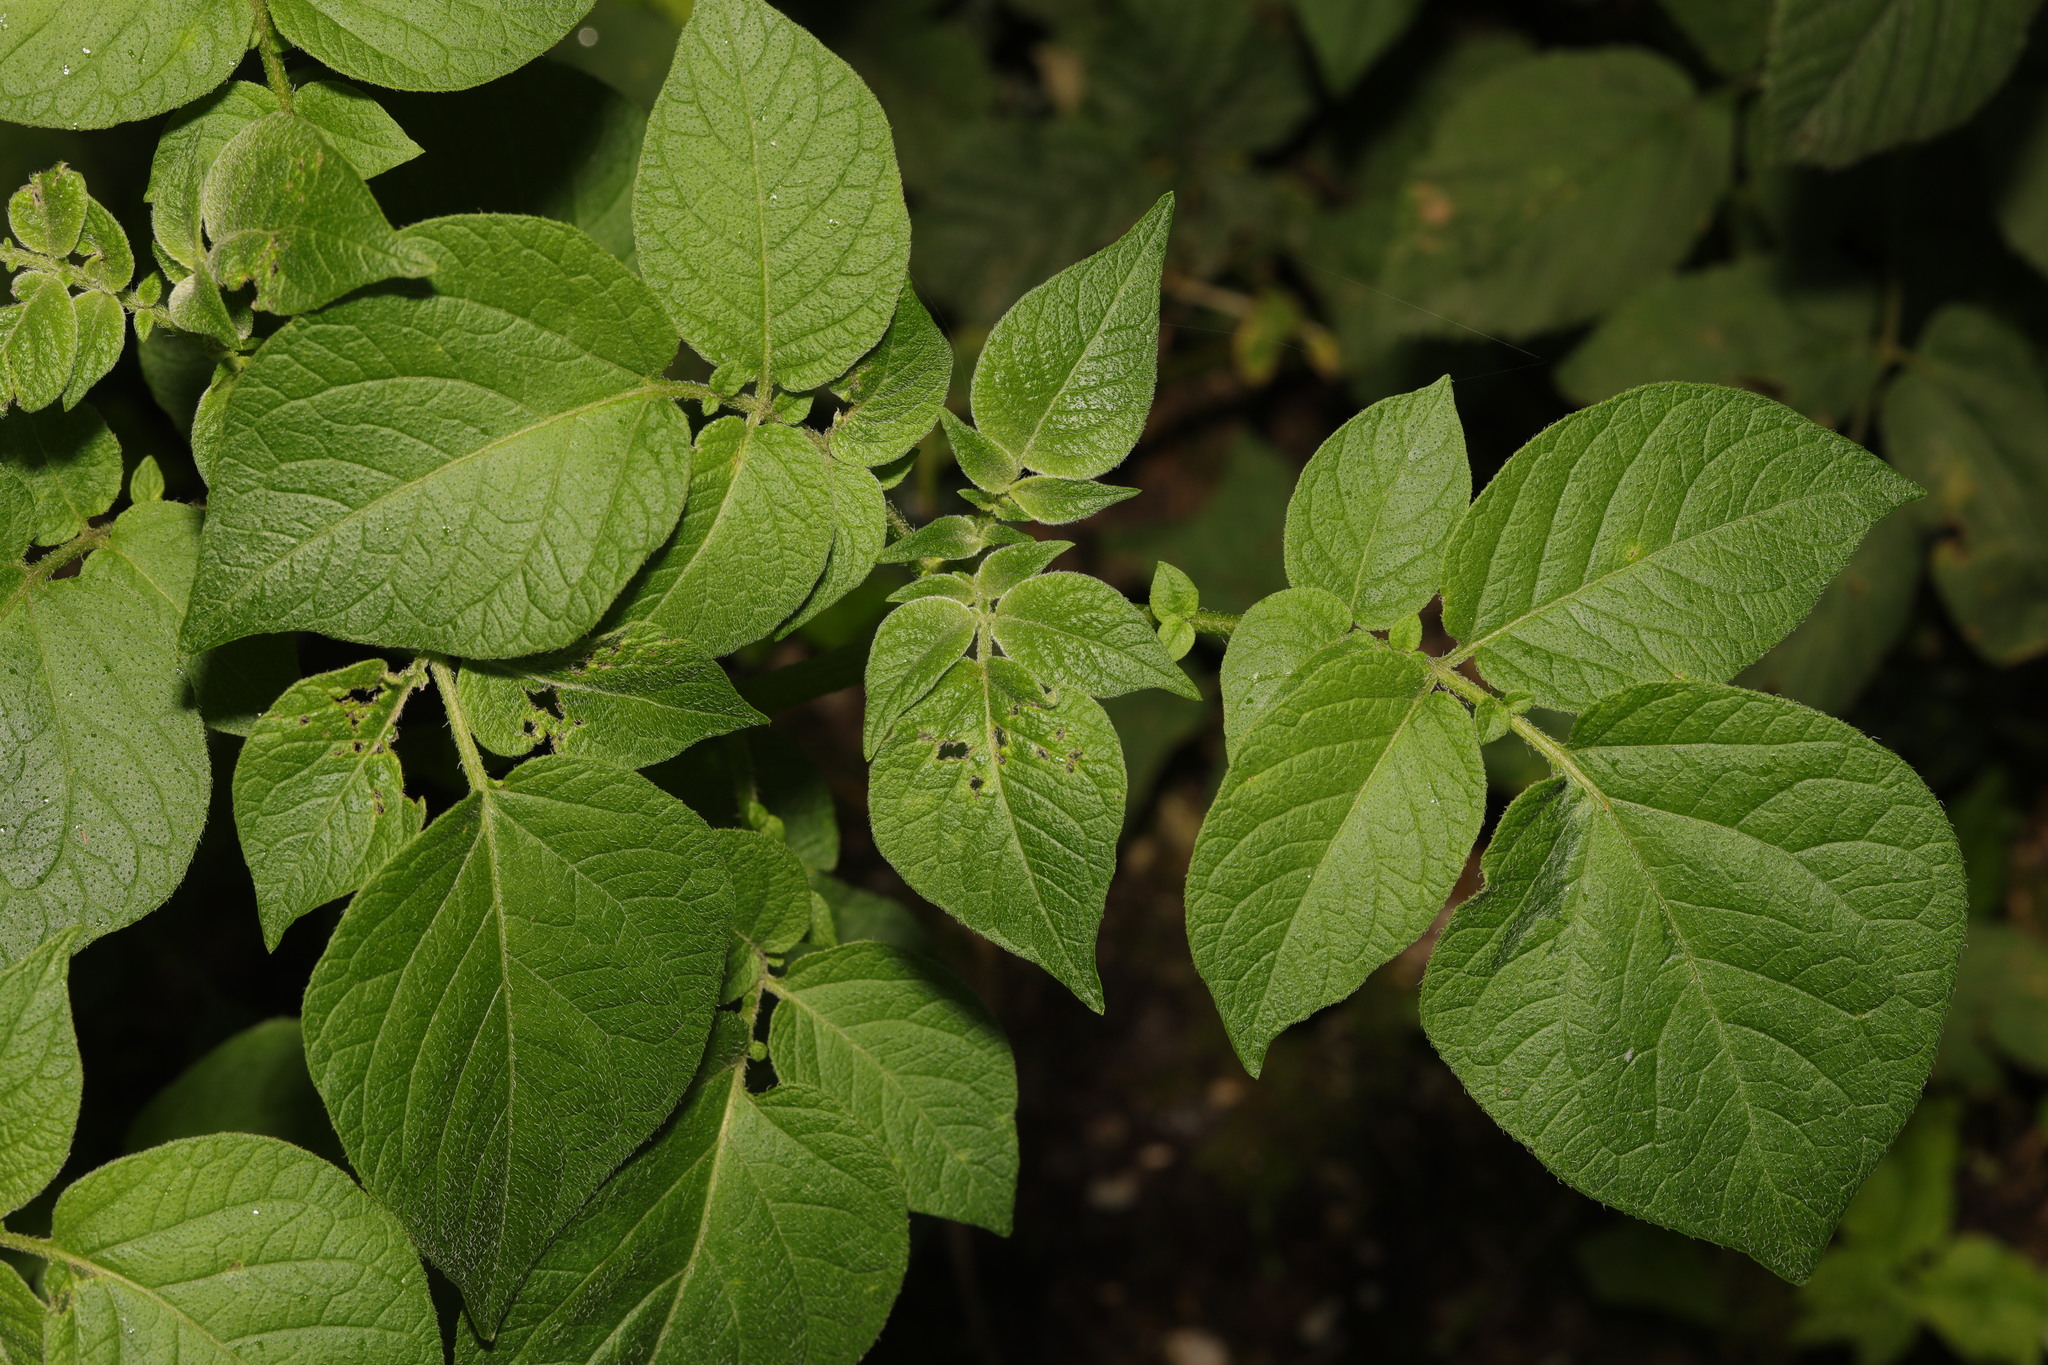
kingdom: Plantae
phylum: Tracheophyta
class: Magnoliopsida
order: Solanales
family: Solanaceae
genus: Solanum
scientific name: Solanum tuberosum
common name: Potato
